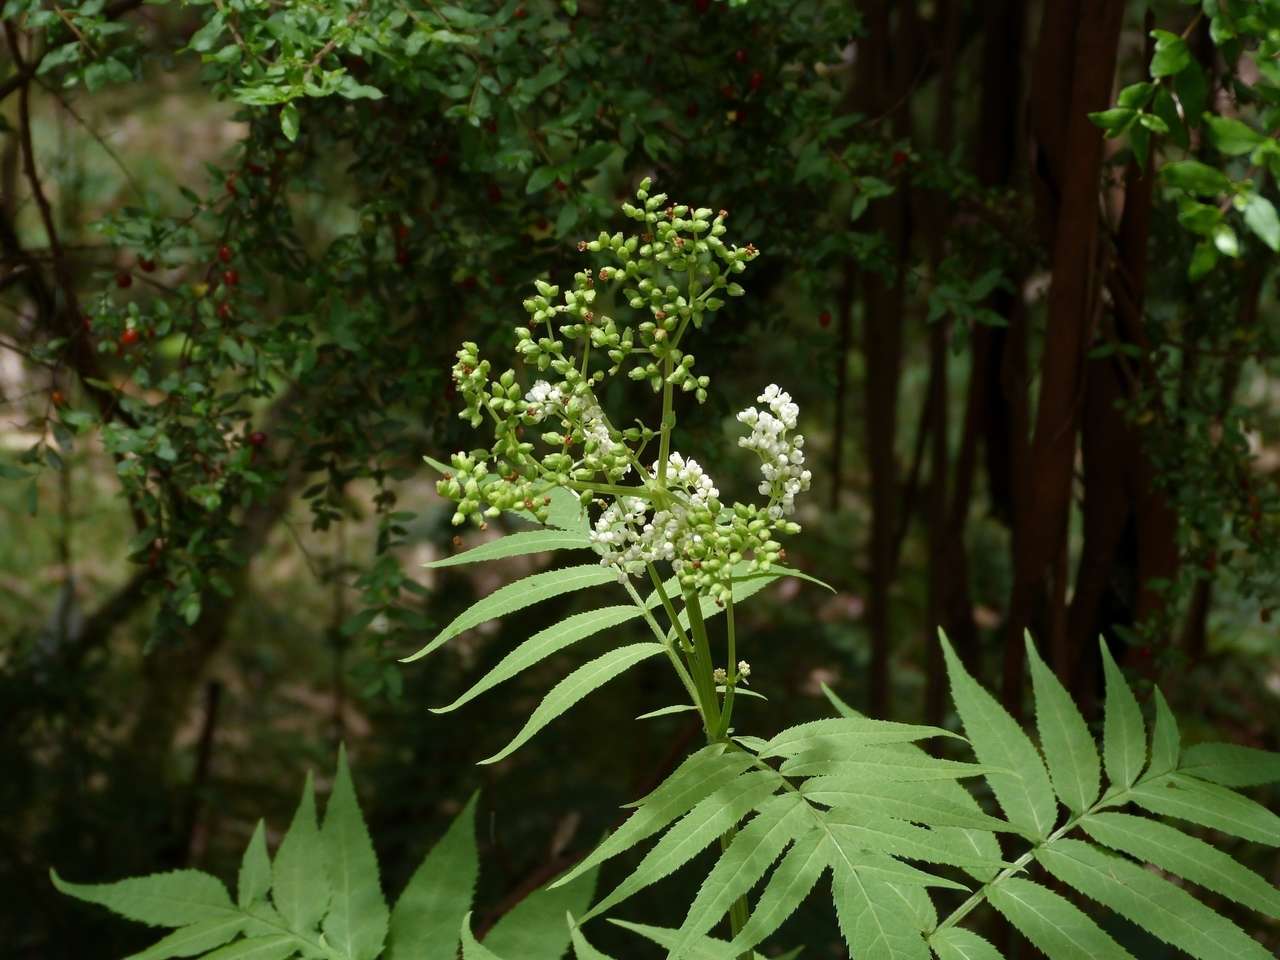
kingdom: Plantae
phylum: Tracheophyta
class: Magnoliopsida
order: Dipsacales
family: Viburnaceae
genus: Sambucus
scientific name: Sambucus gaudichaudiana
